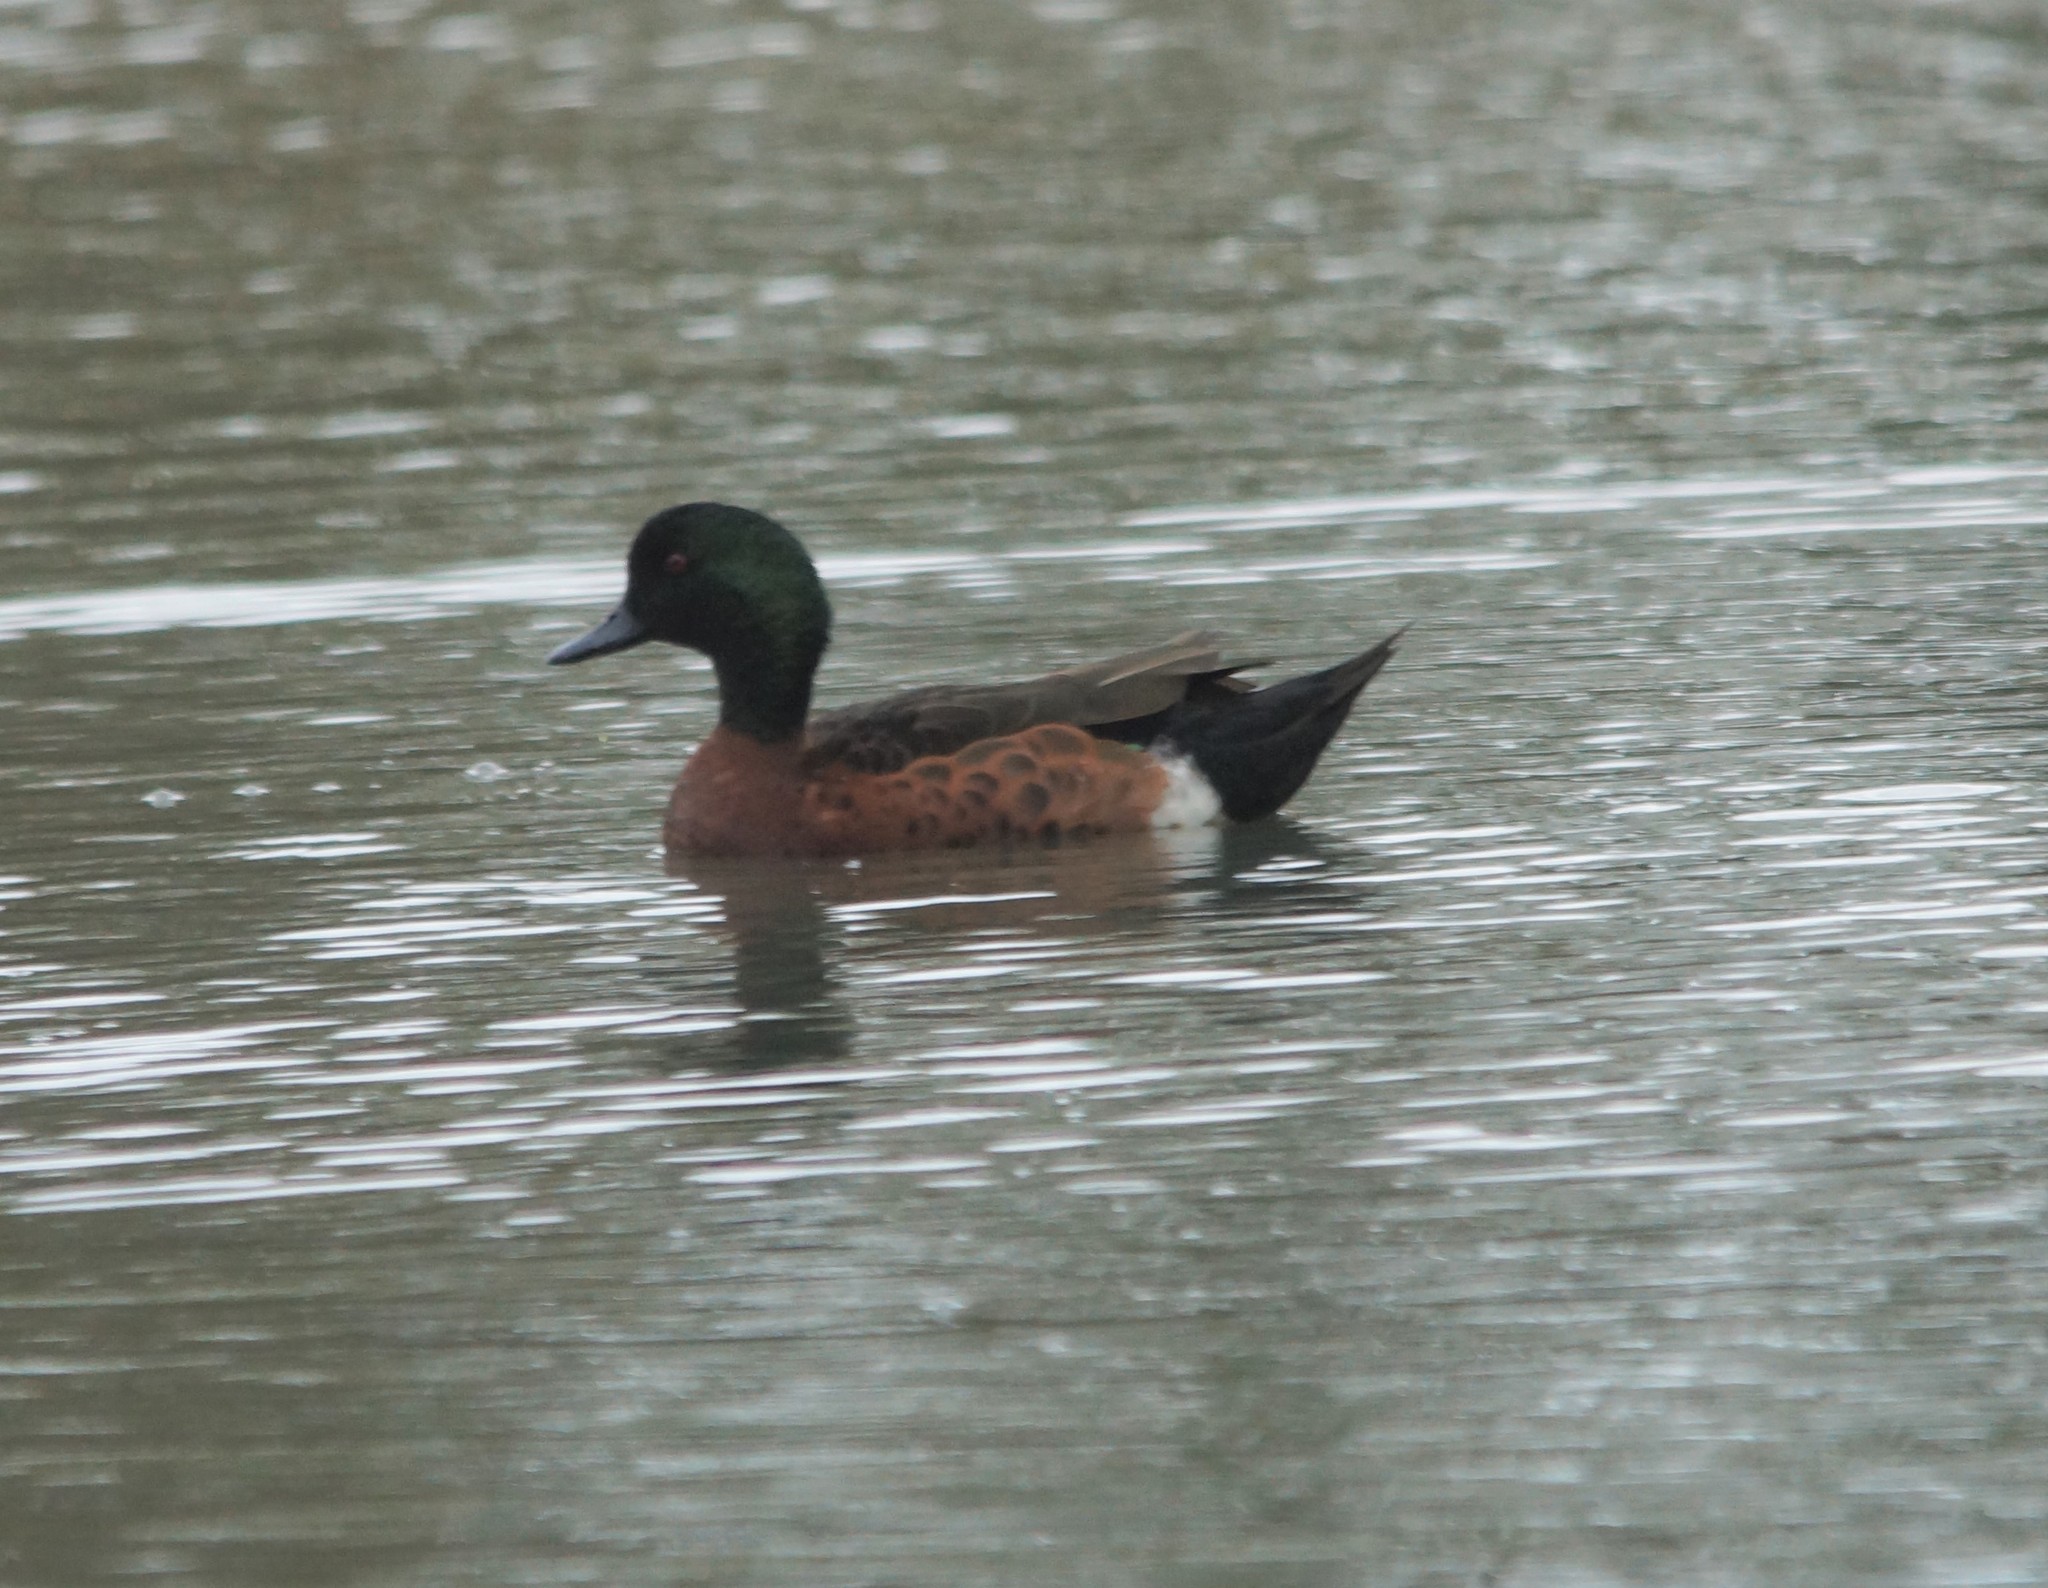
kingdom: Animalia
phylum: Chordata
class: Aves
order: Anseriformes
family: Anatidae
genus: Anas
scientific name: Anas castanea
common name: Chestnut teal
